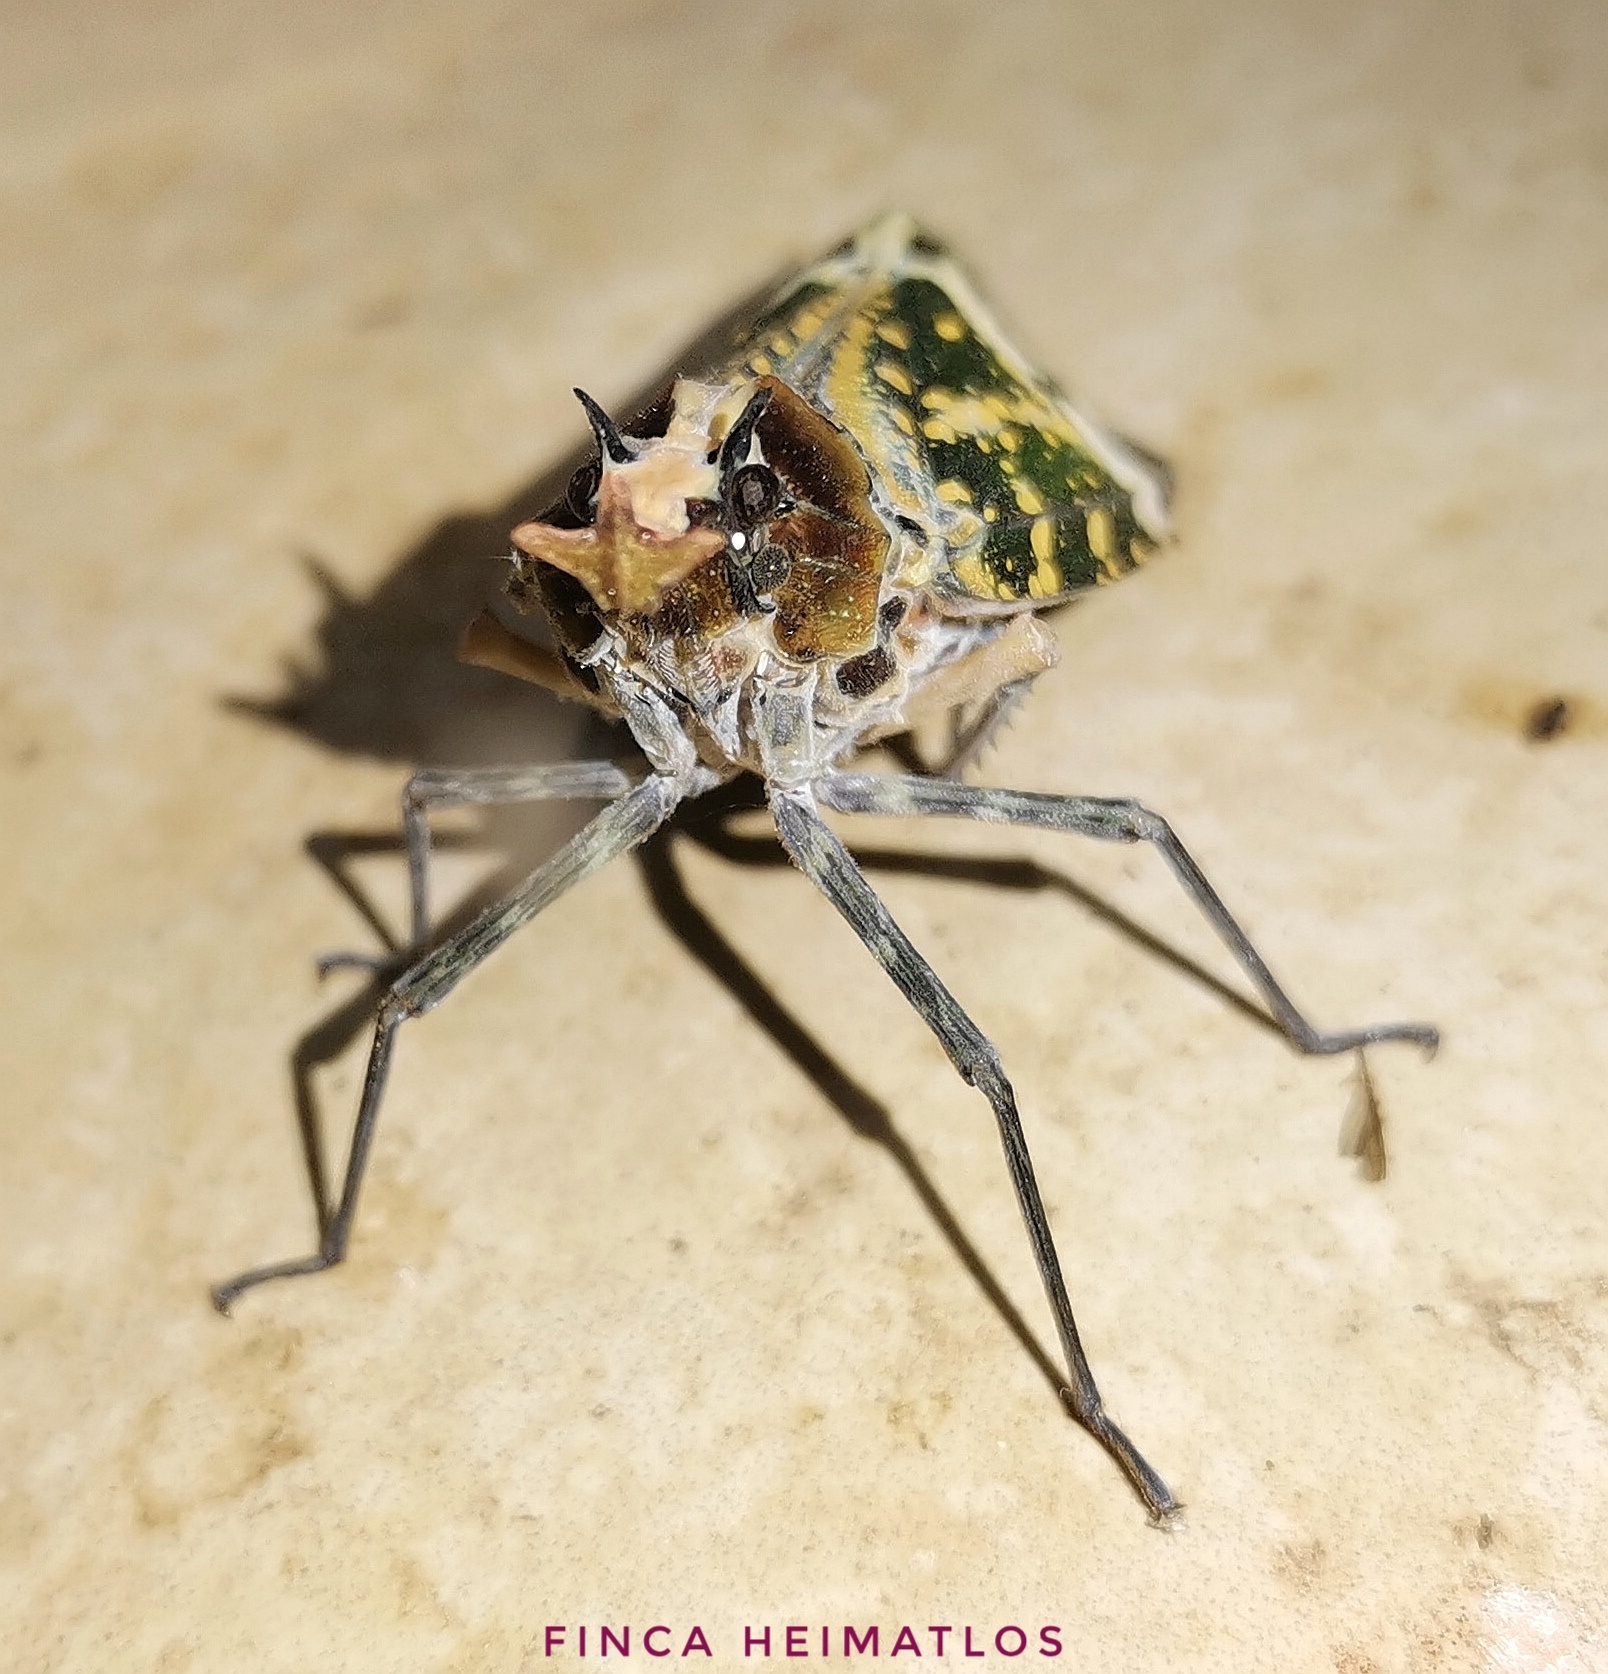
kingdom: Animalia
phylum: Arthropoda
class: Insecta
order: Hemiptera
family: Fulgoridae
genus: Phrictus
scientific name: Phrictus hoffmannsi
